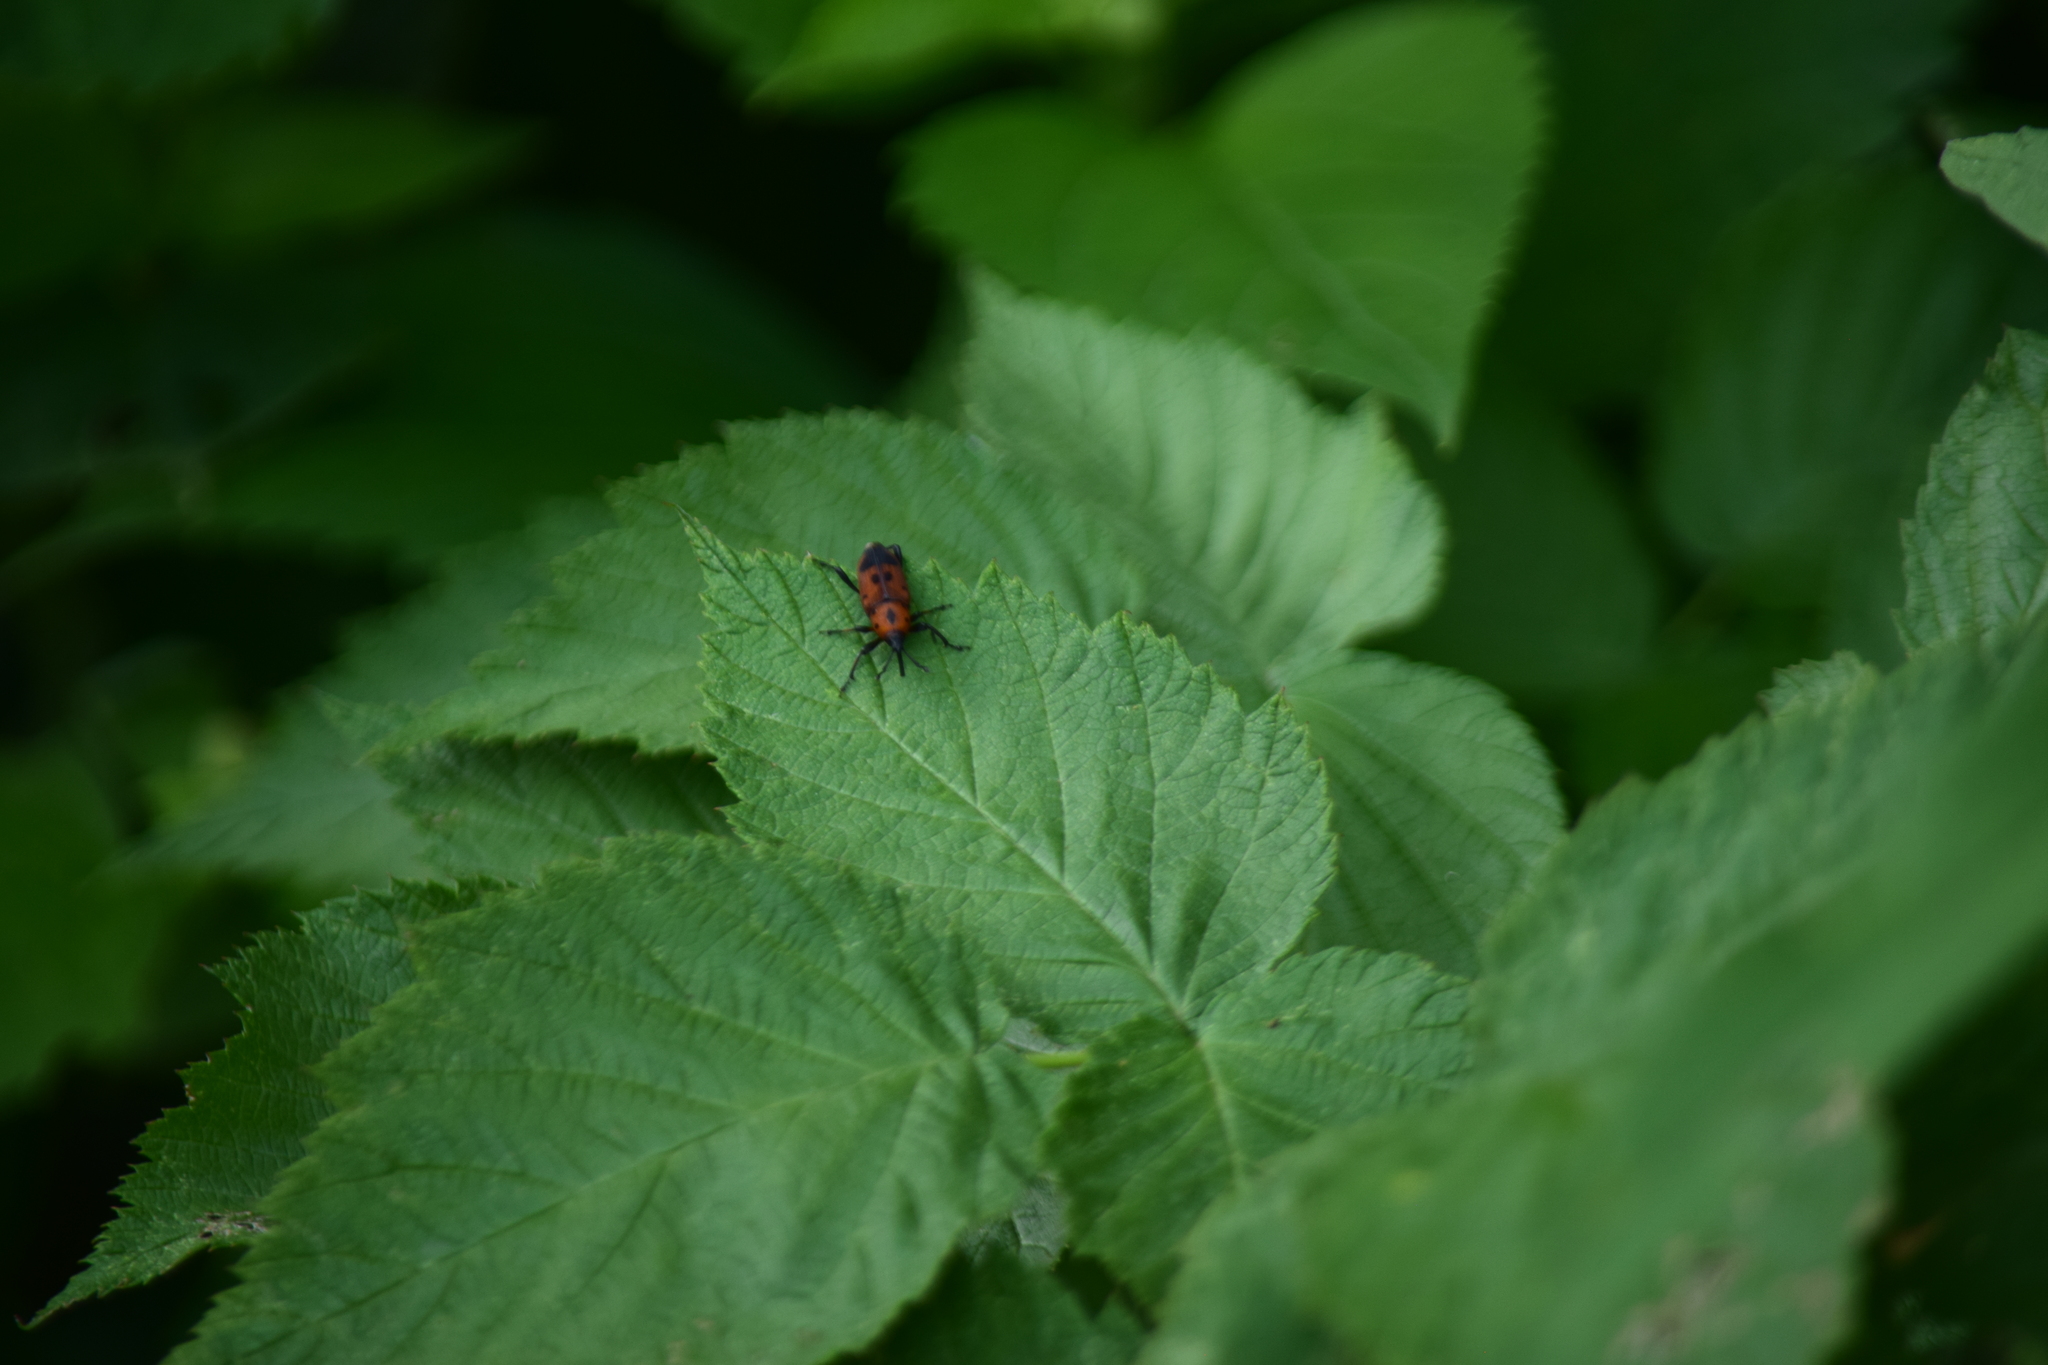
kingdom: Animalia
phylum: Arthropoda
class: Insecta
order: Coleoptera
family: Dryophthoridae
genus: Rhodobaenus
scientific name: Rhodobaenus quinquepunctatus
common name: Cocklebur weevil
